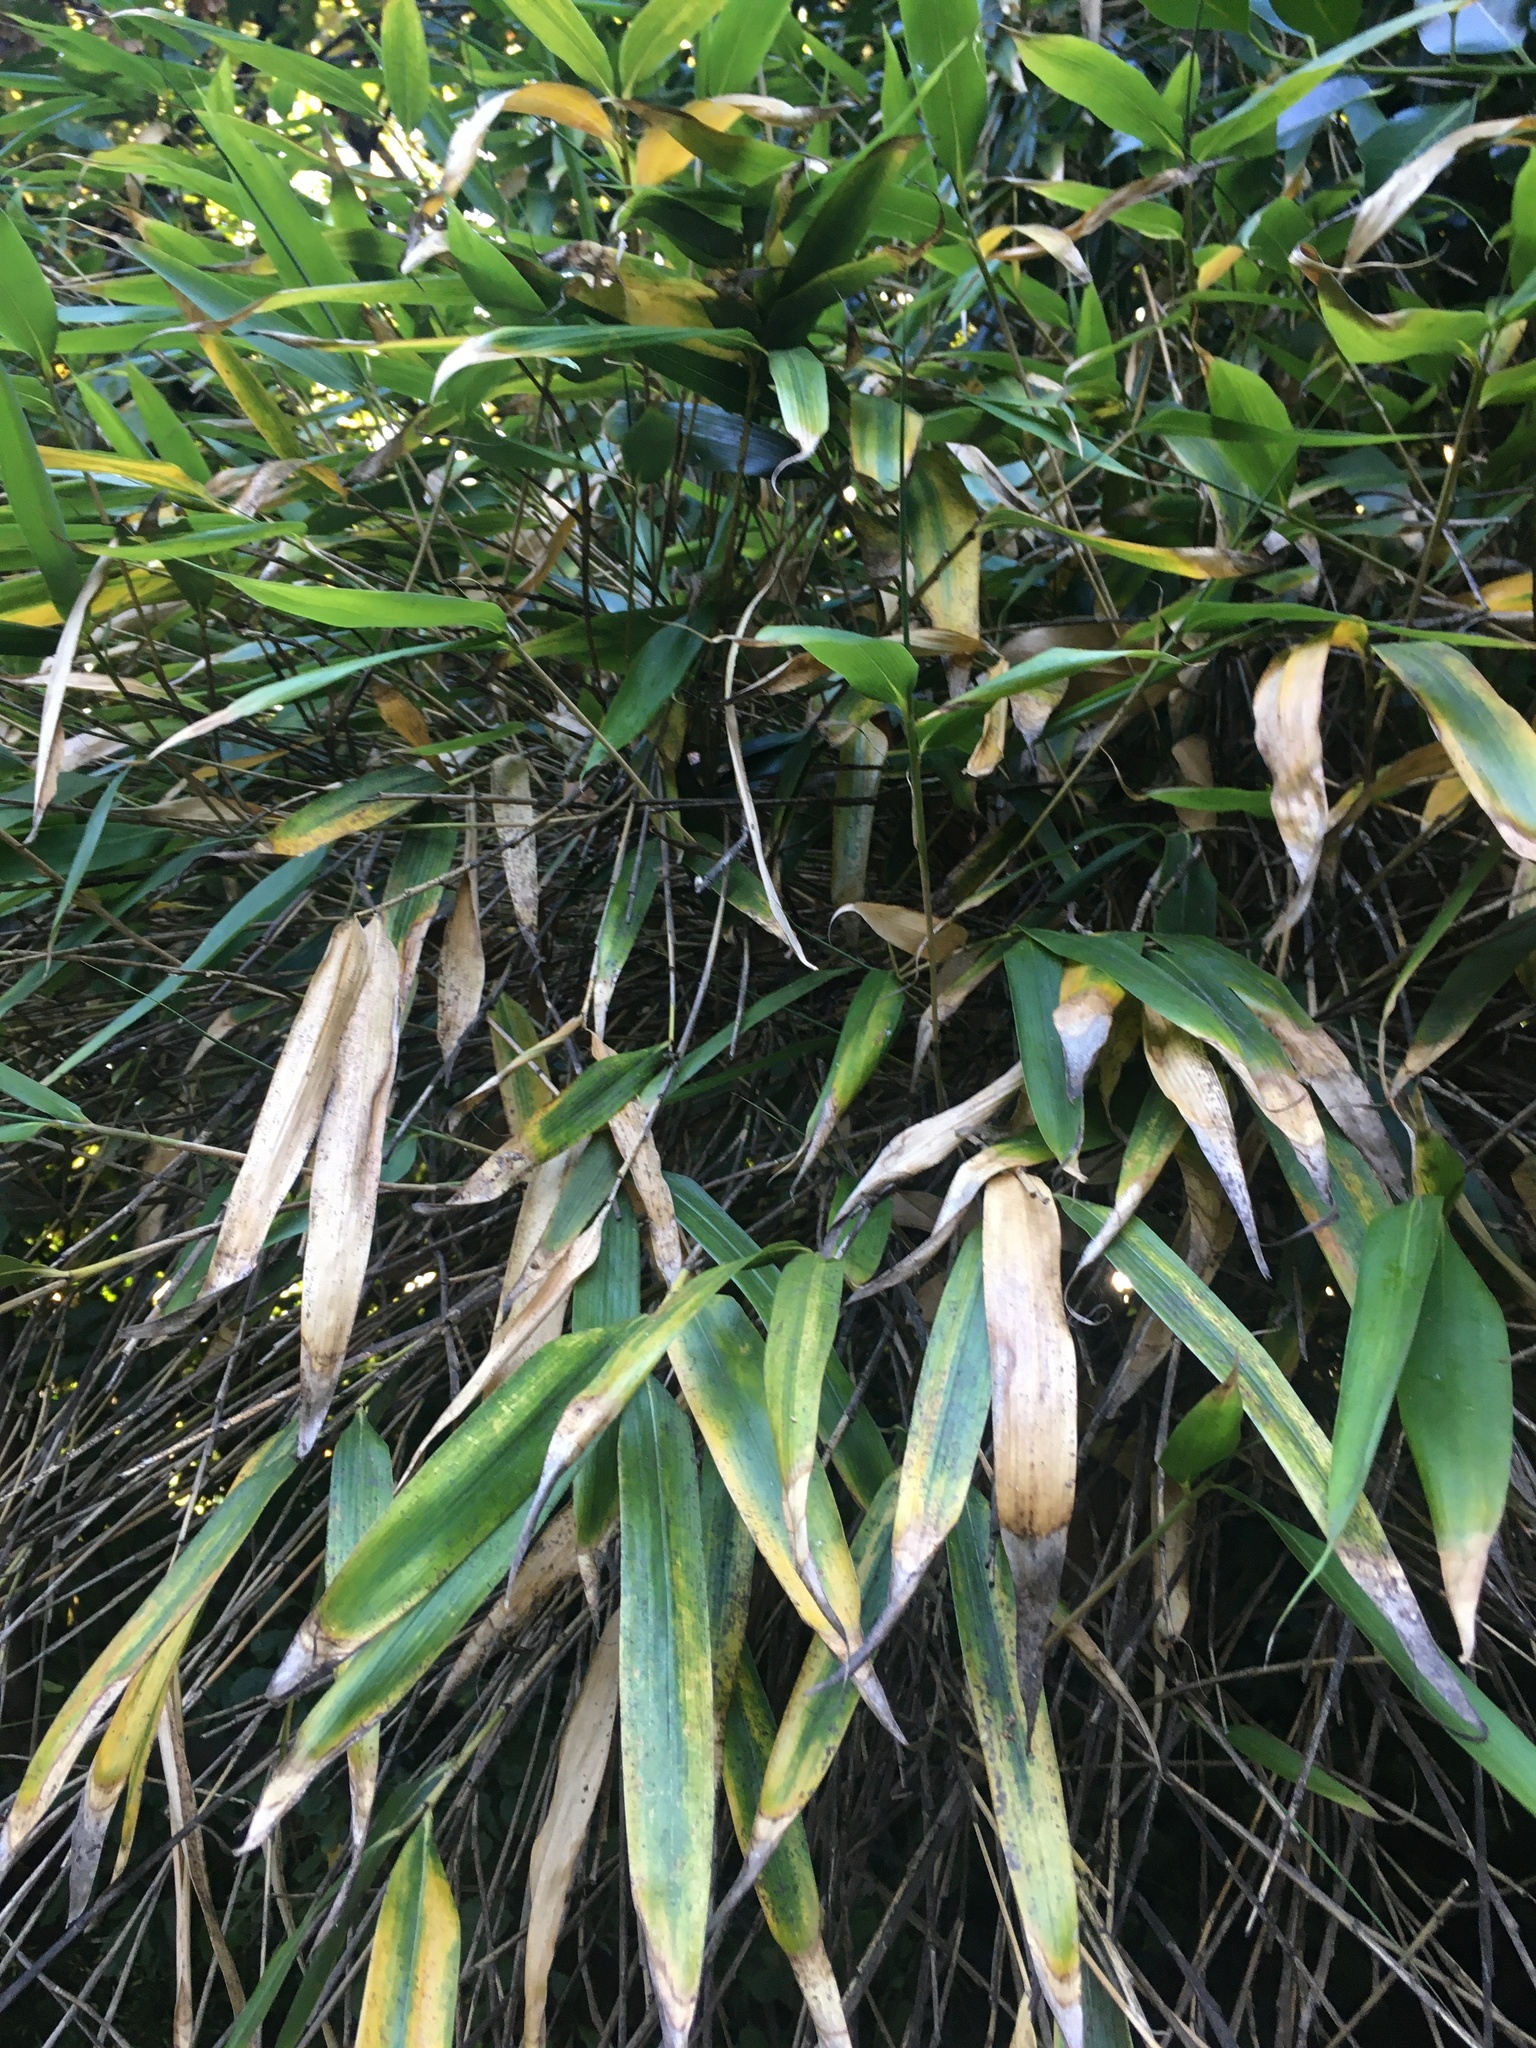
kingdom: Plantae
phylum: Tracheophyta
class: Liliopsida
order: Poales
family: Poaceae
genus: Pseudosasa
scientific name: Pseudosasa japonica
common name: Arrow bamboo
